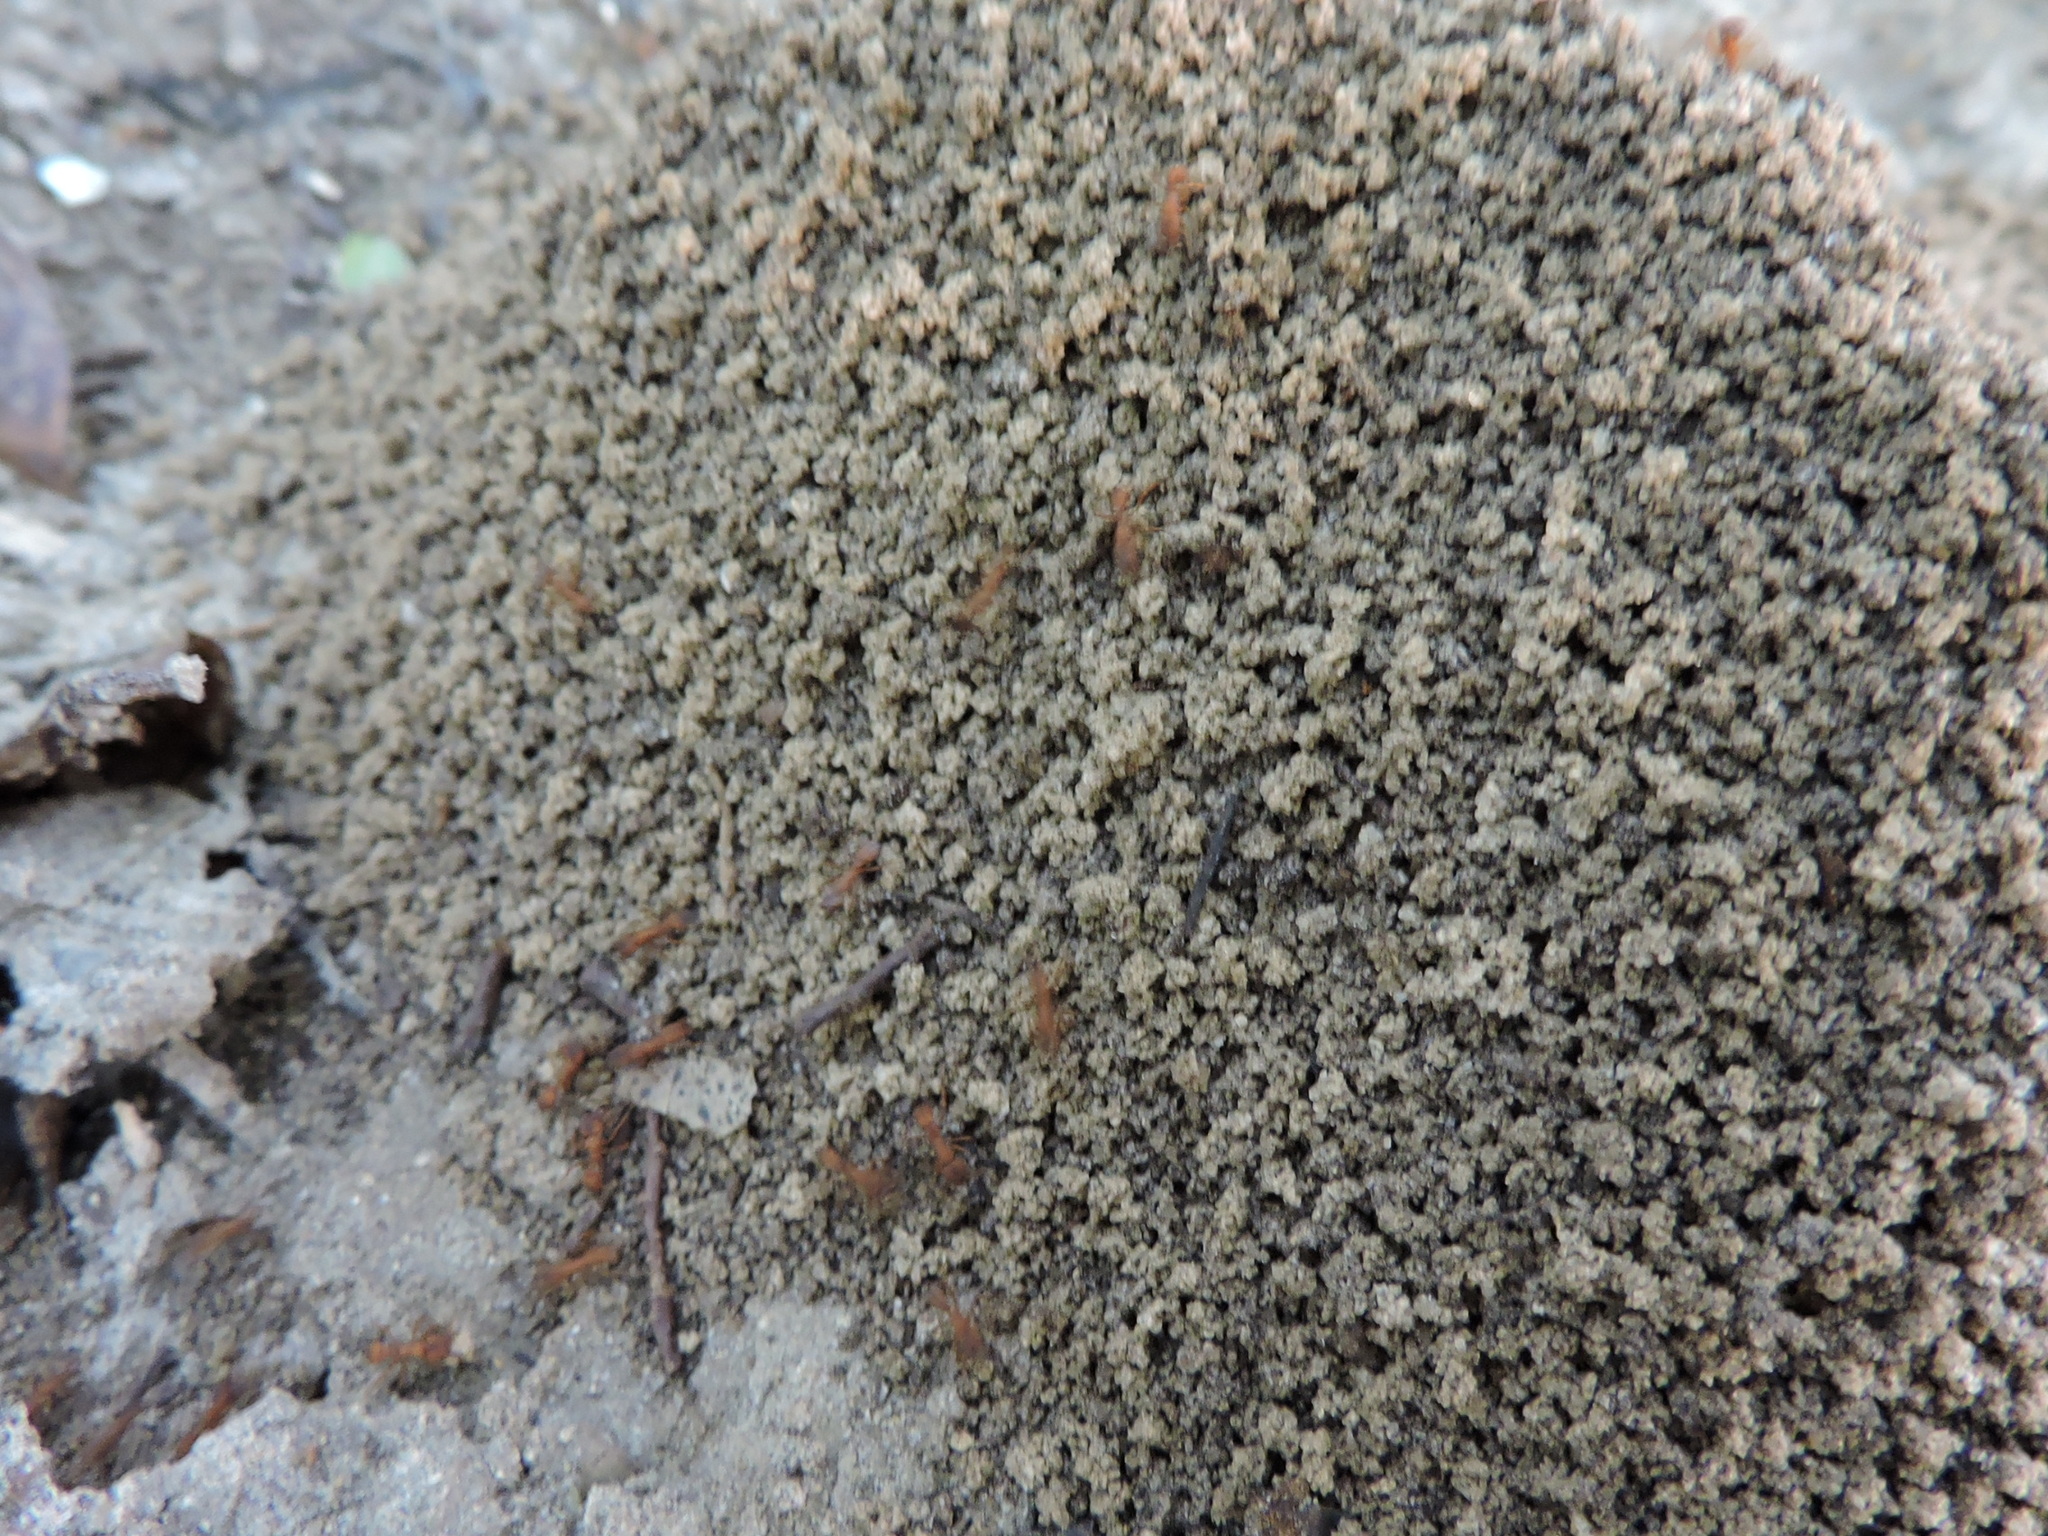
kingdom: Animalia
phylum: Arthropoda
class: Insecta
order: Hymenoptera
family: Formicidae
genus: Trachymyrmex
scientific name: Trachymyrmex septentrionalis
